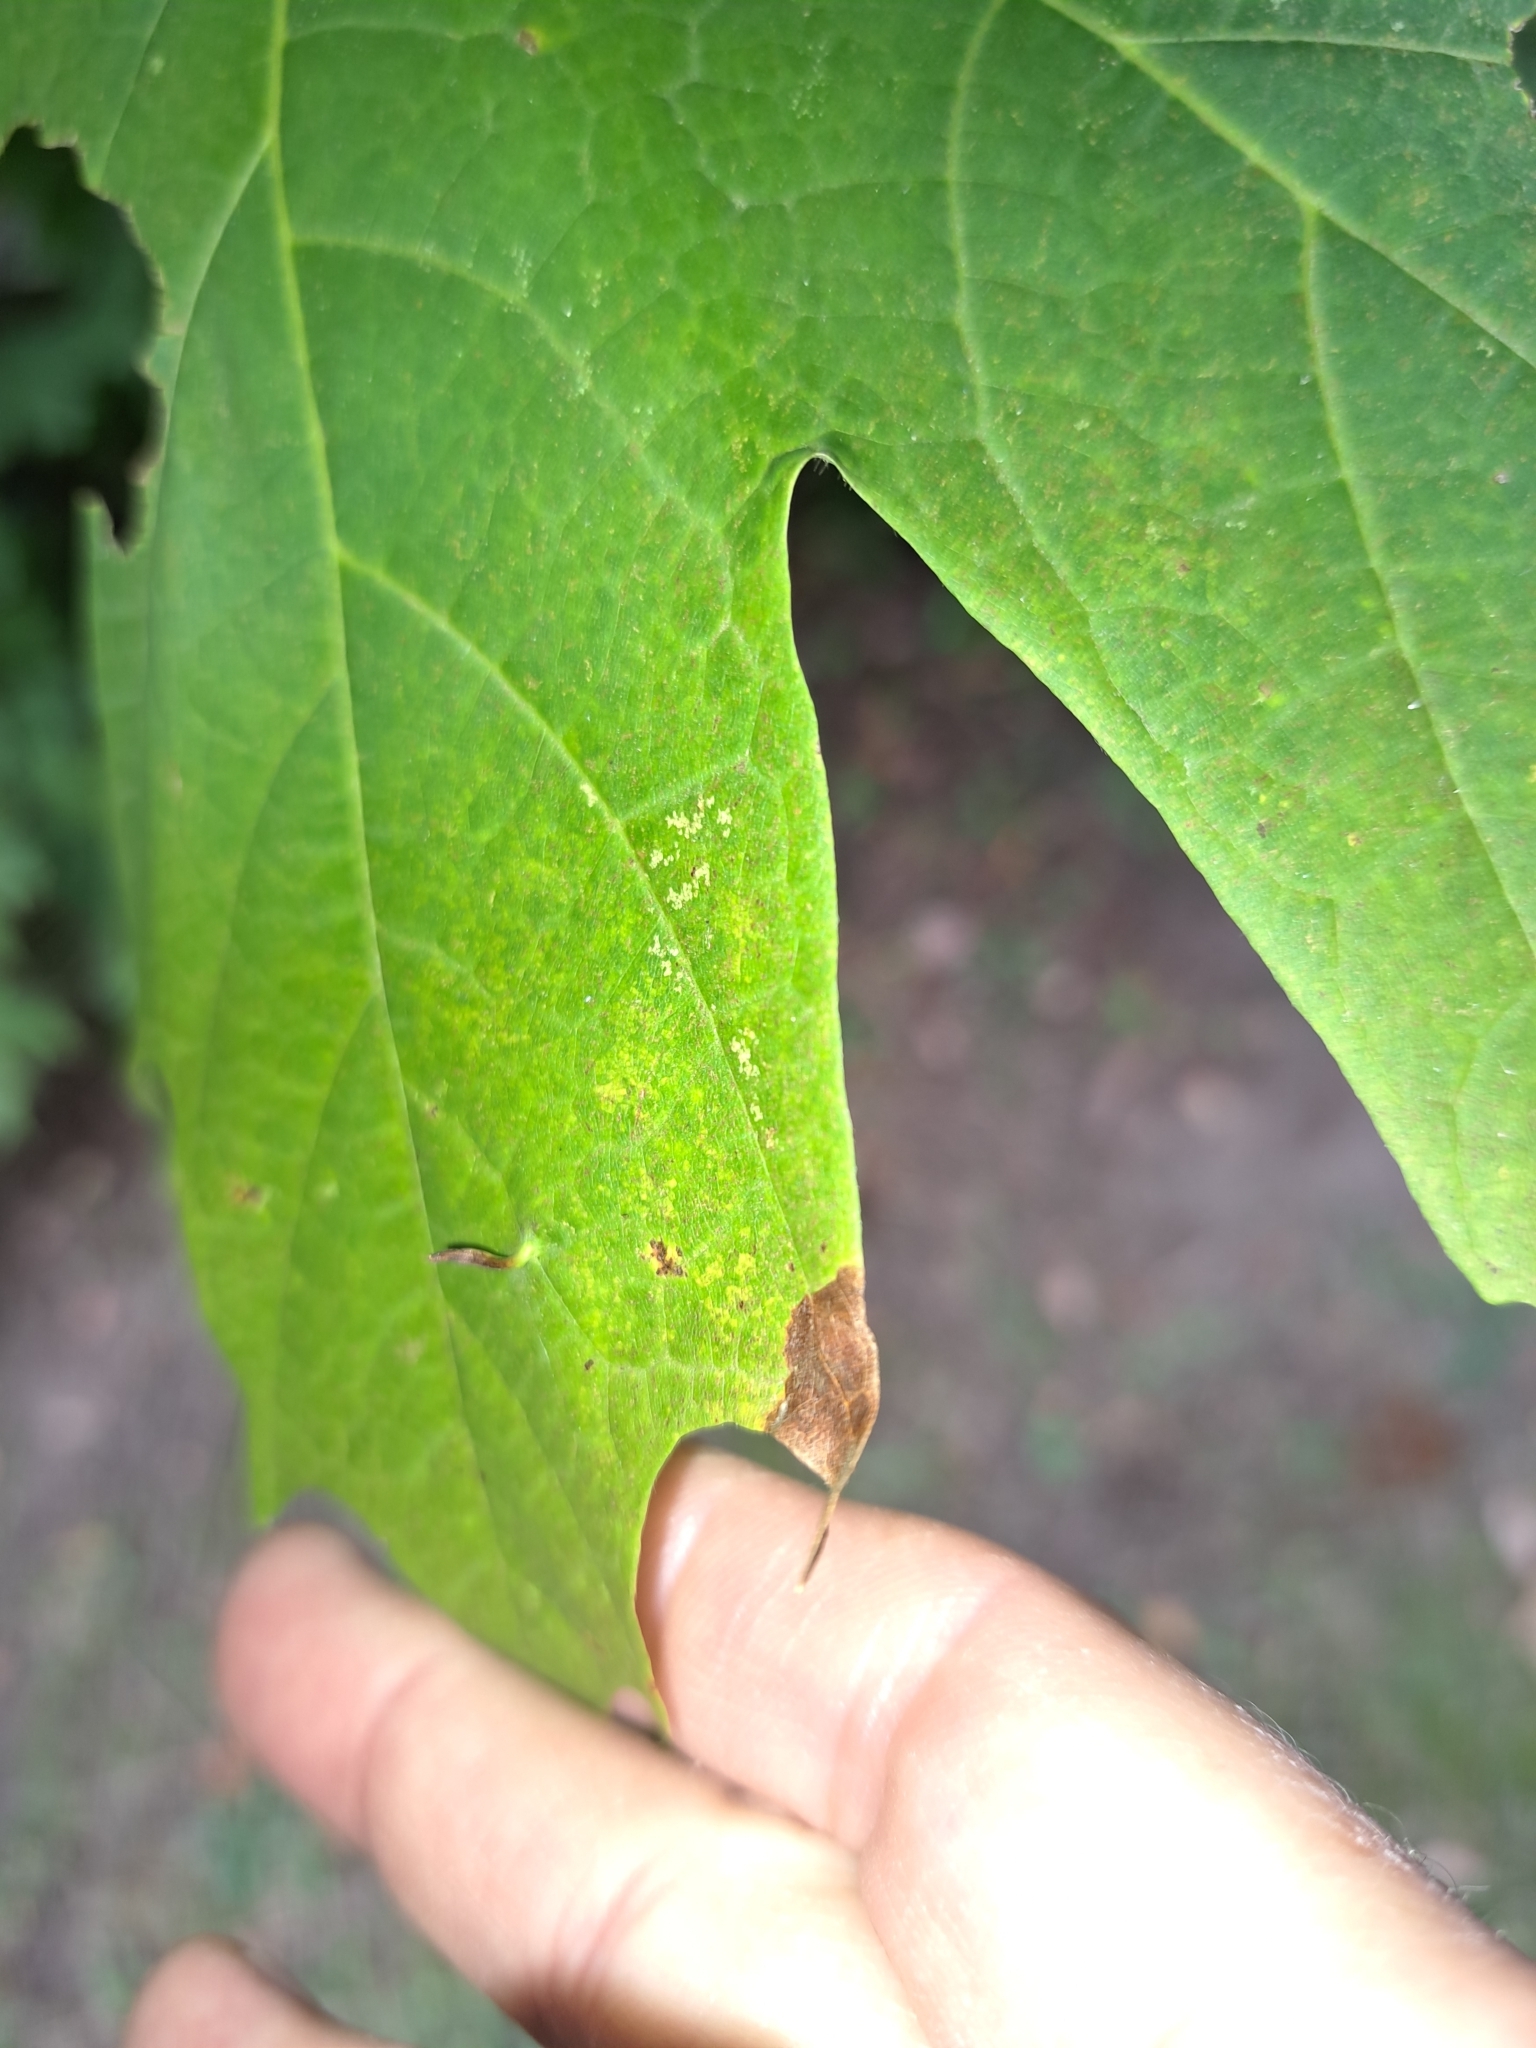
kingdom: Animalia
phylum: Arthropoda
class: Arachnida
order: Trombidiformes
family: Eriophyidae
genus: Vasates
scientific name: Vasates aceriscrumena
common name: Maple spindle gall mite
